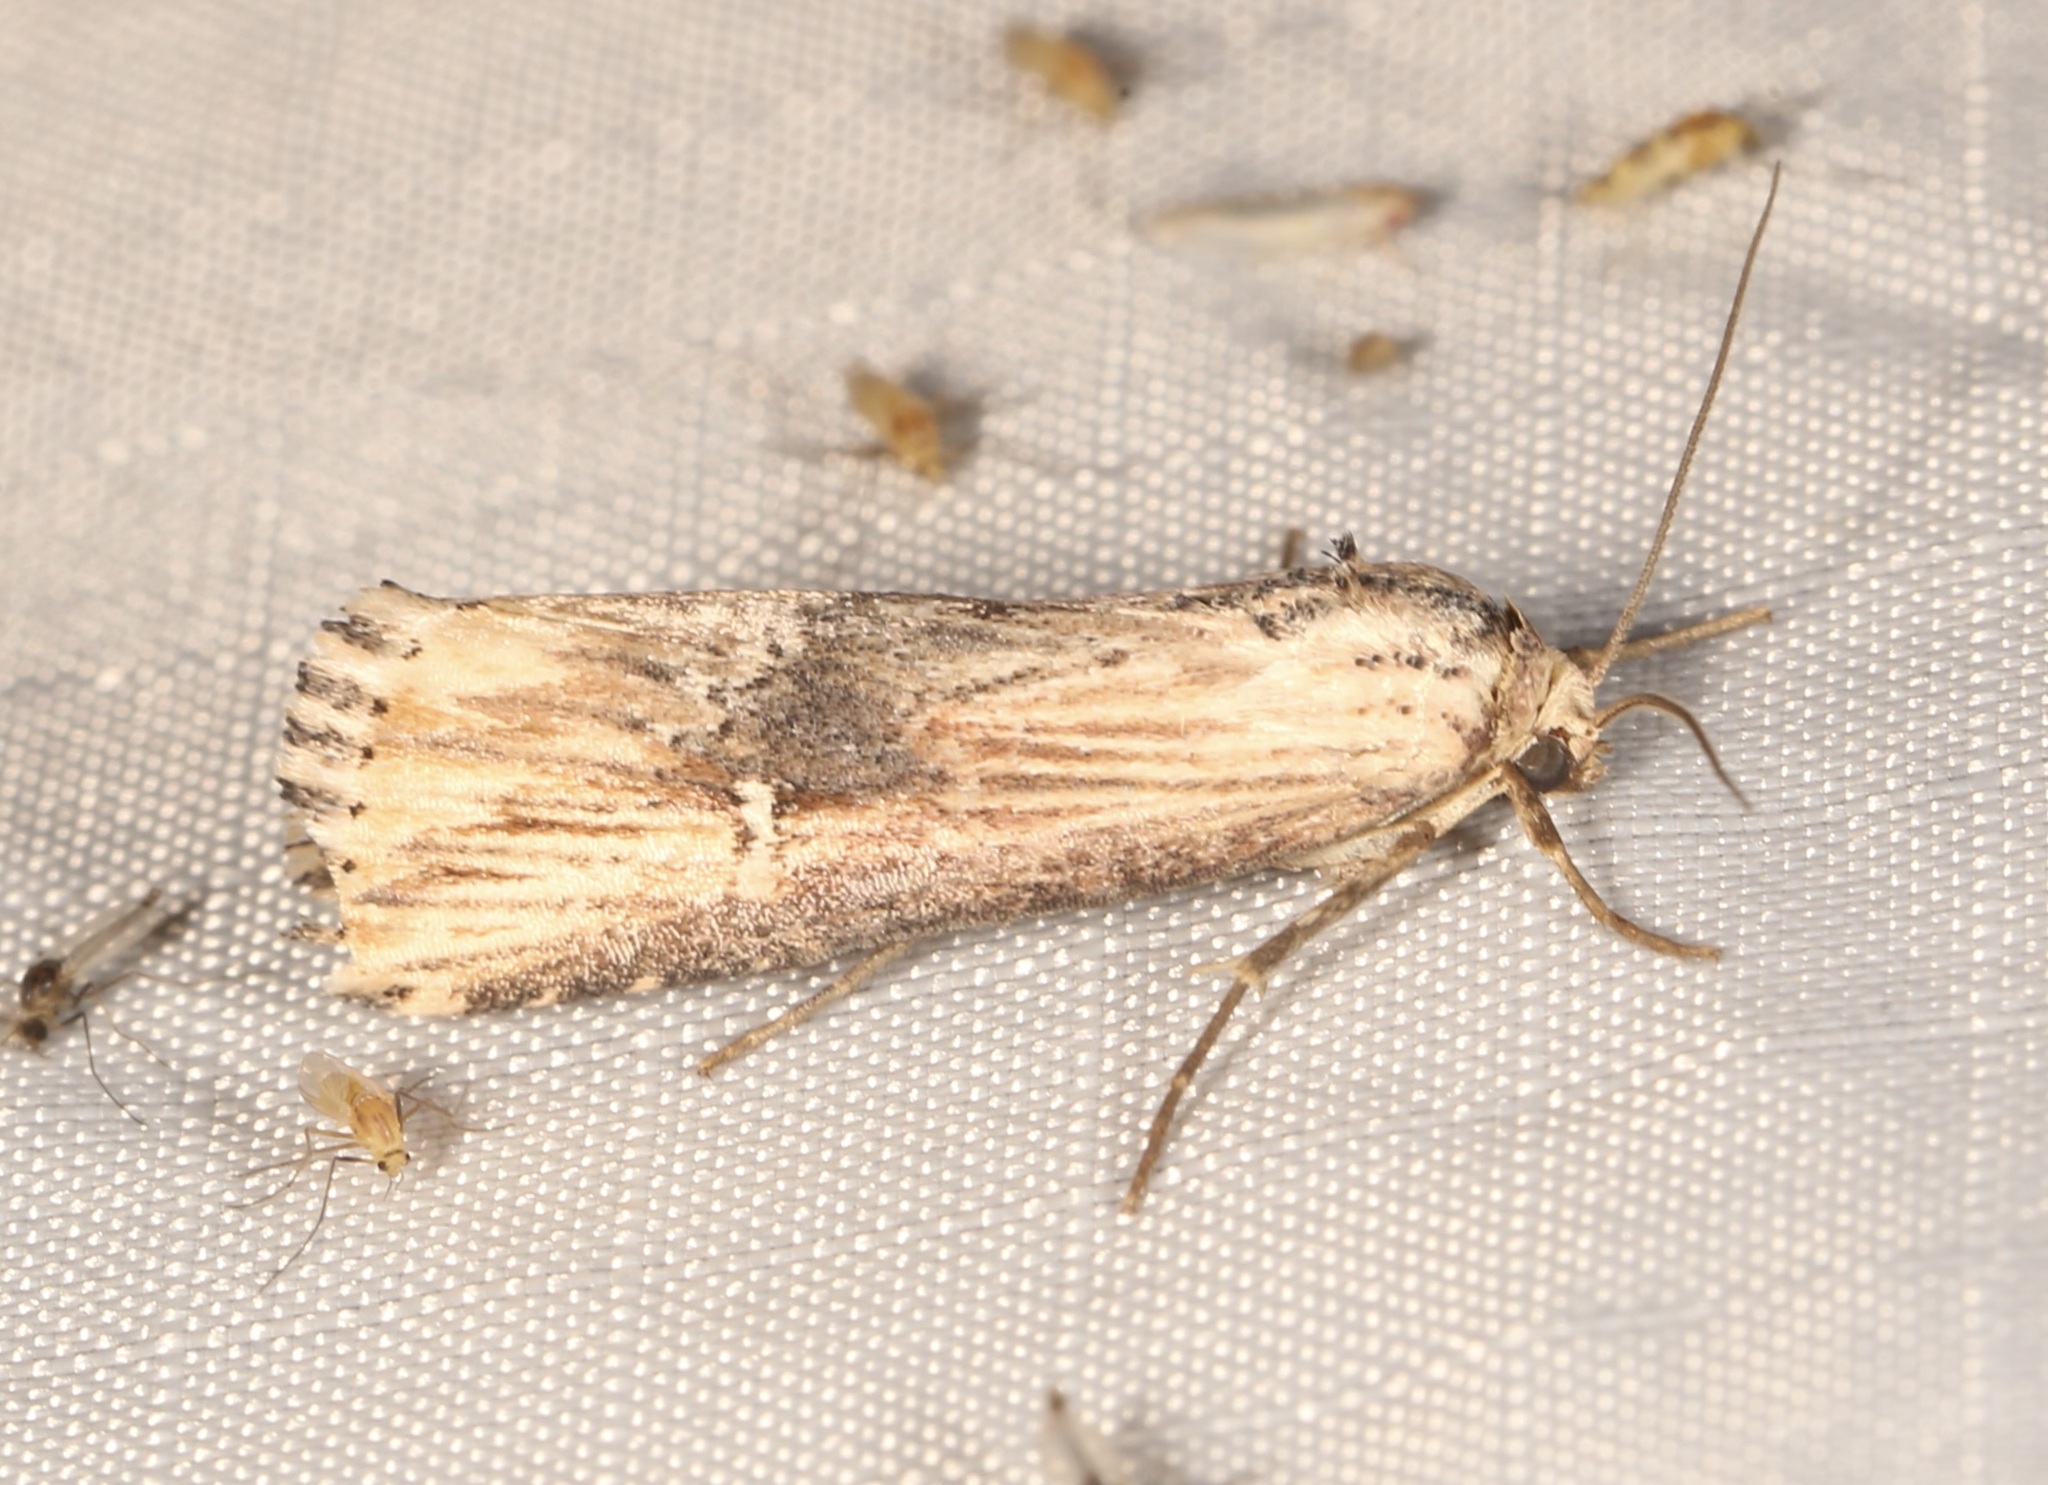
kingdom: Animalia
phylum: Arthropoda
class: Insecta
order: Lepidoptera
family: Noctuidae
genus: Crambodes
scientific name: Crambodes talidiformis
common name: Verbena moth
